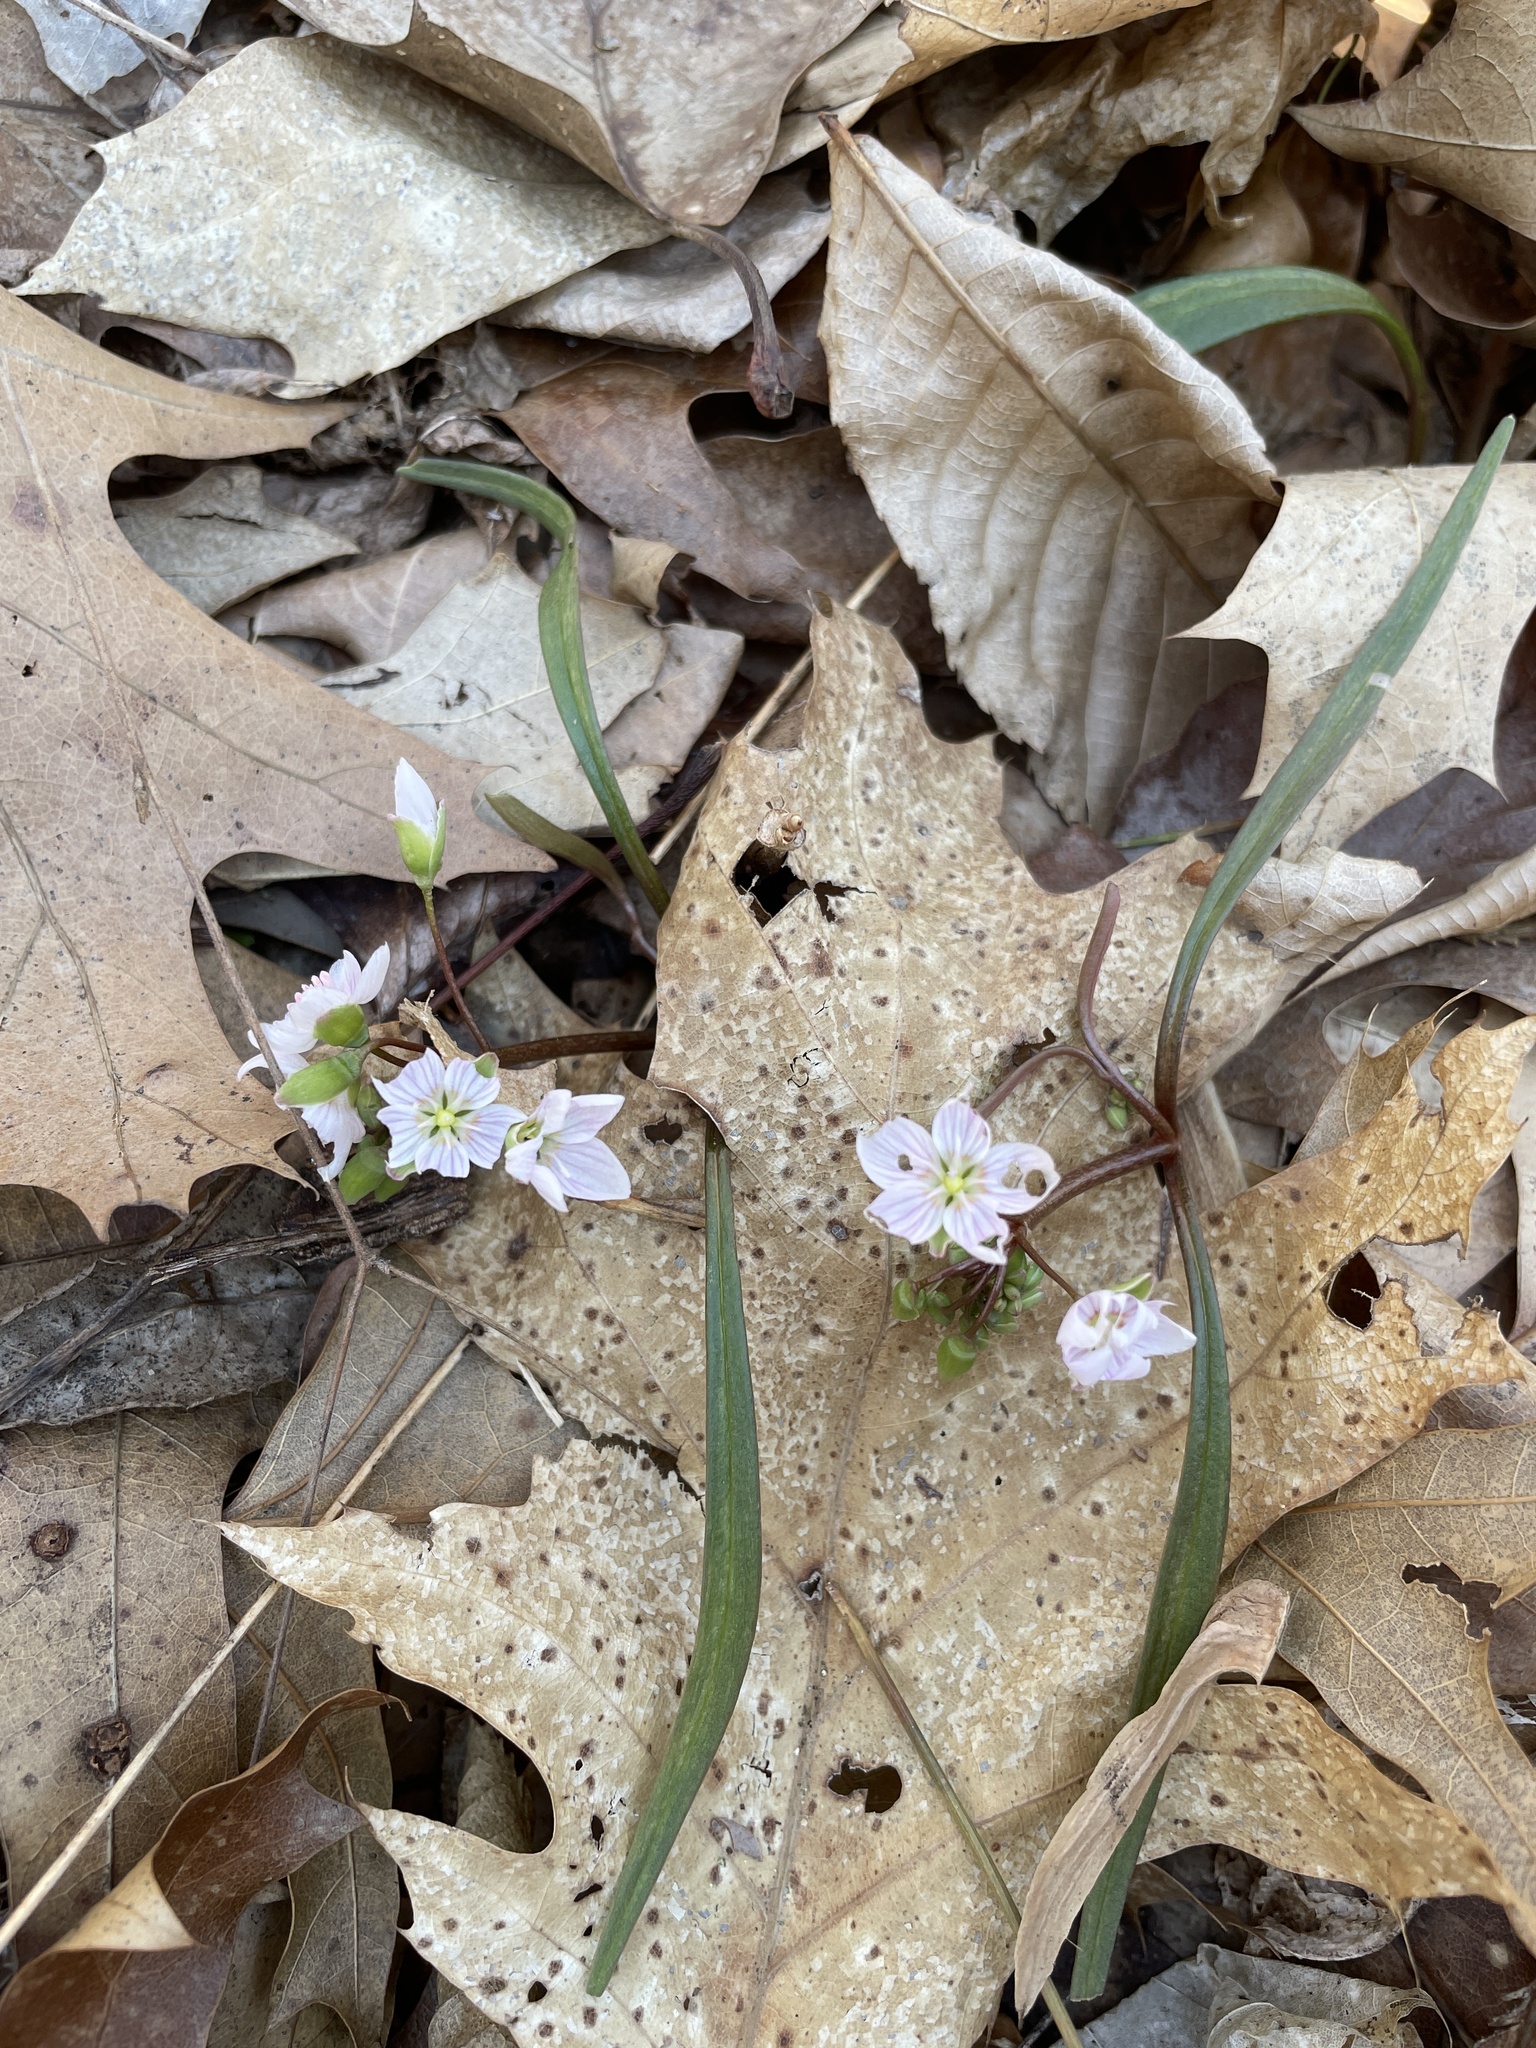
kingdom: Plantae
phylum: Tracheophyta
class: Magnoliopsida
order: Caryophyllales
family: Montiaceae
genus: Claytonia
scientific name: Claytonia virginica
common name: Virginia springbeauty
